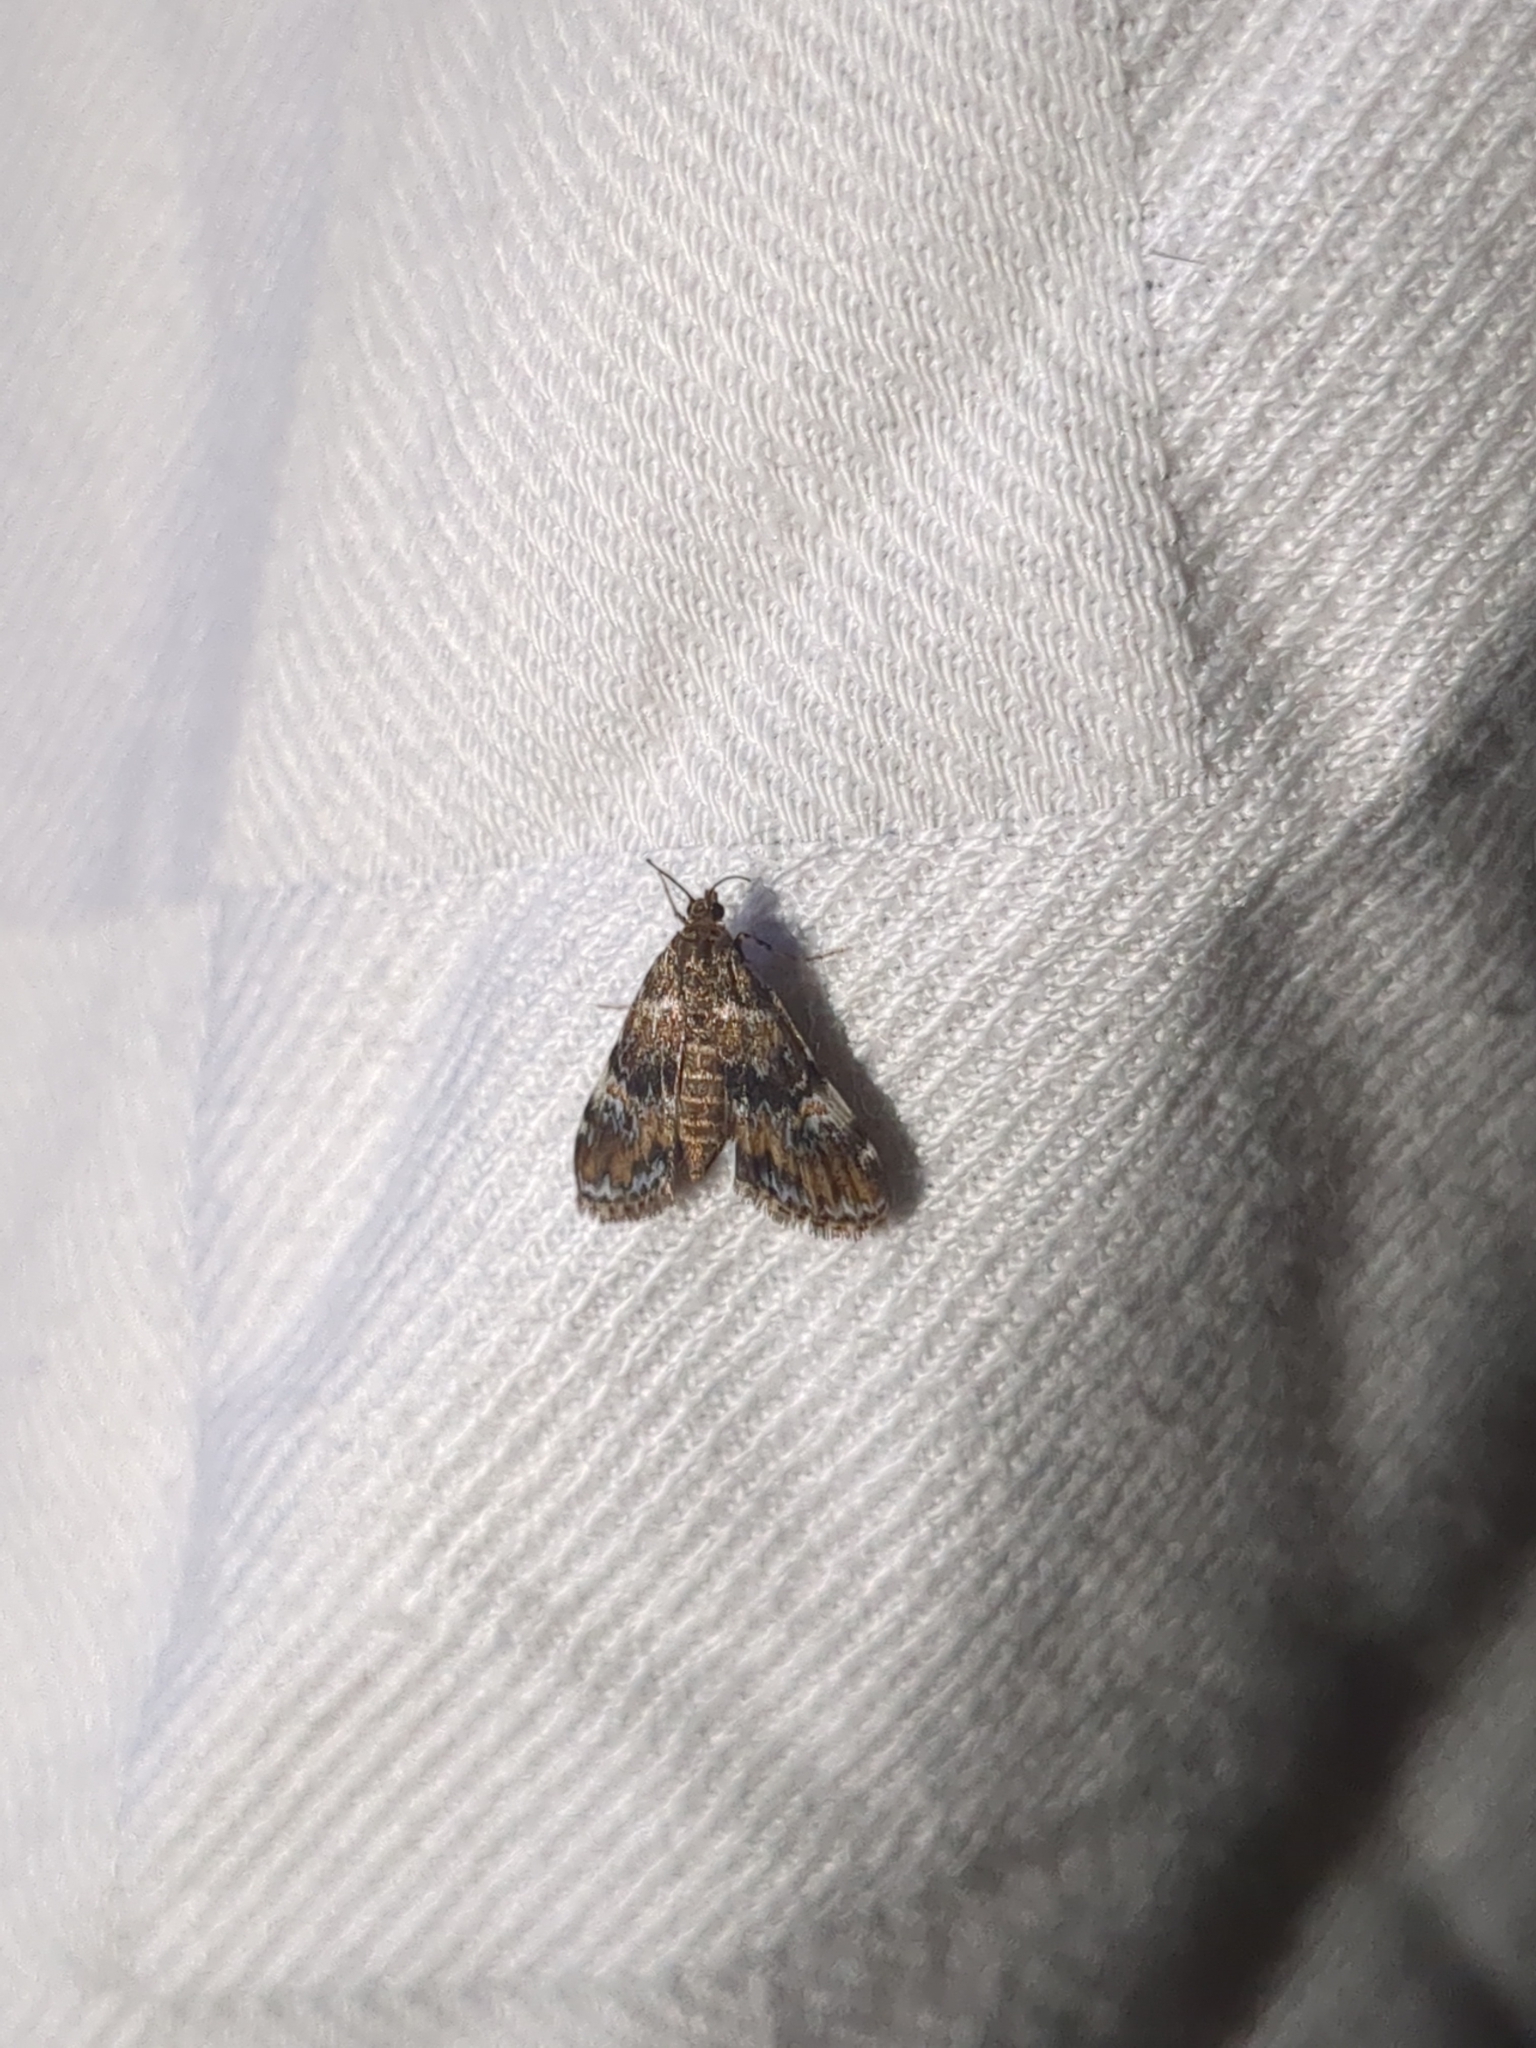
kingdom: Animalia
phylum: Arthropoda
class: Insecta
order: Lepidoptera
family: Crambidae
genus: Elophila
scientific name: Elophila obliteralis
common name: Waterlily leafcutter moth
